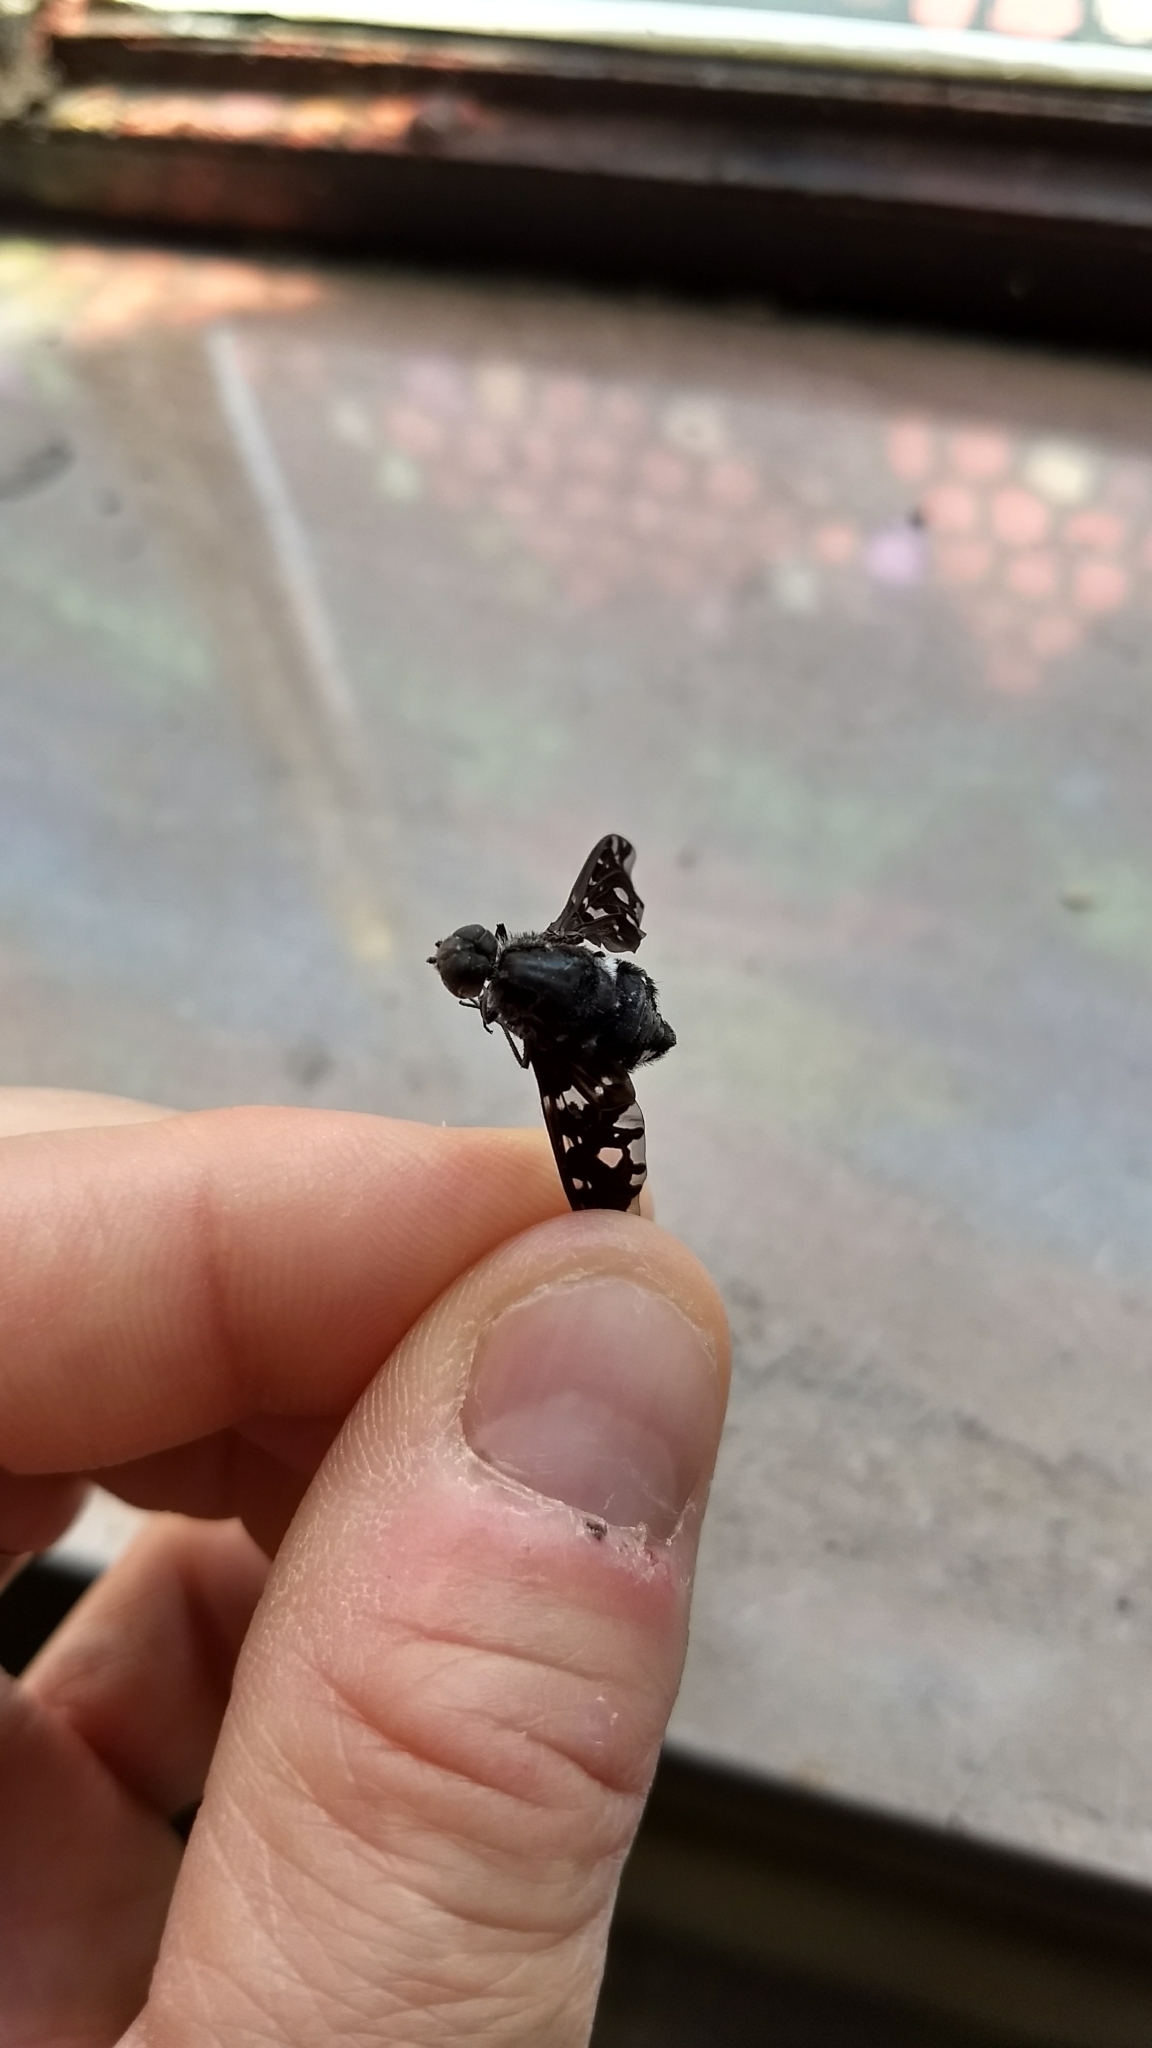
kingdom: Animalia
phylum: Arthropoda
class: Insecta
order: Diptera
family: Bombyliidae
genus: Xenox
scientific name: Xenox tigrinus
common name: Tiger bee fly
